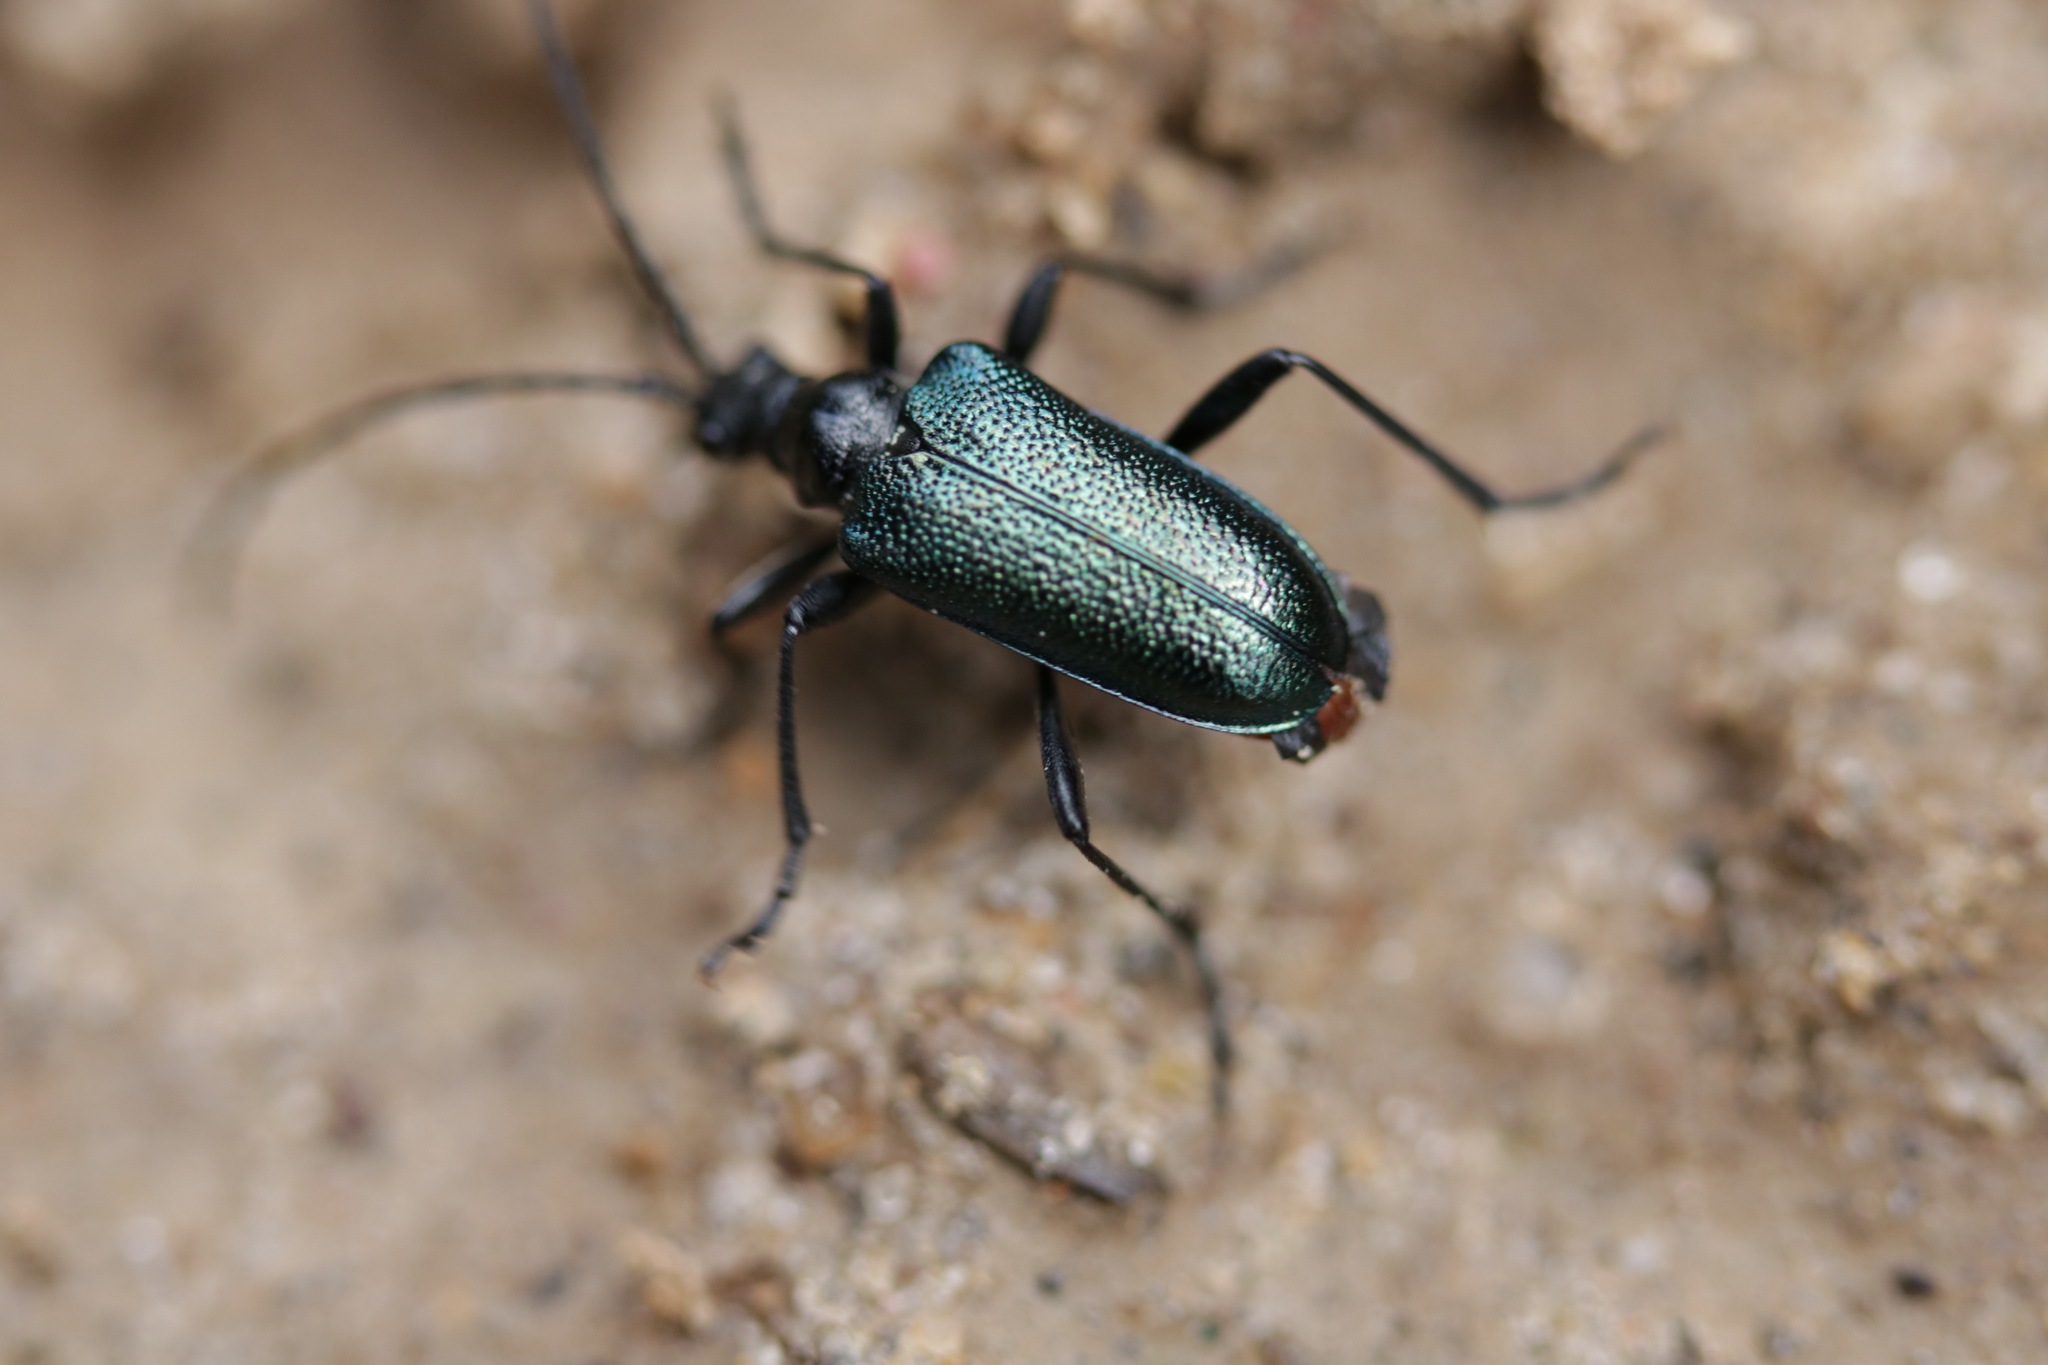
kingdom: Animalia
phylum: Arthropoda
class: Insecta
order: Coleoptera
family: Cerambycidae
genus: Gaurotes
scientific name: Gaurotes virginea
